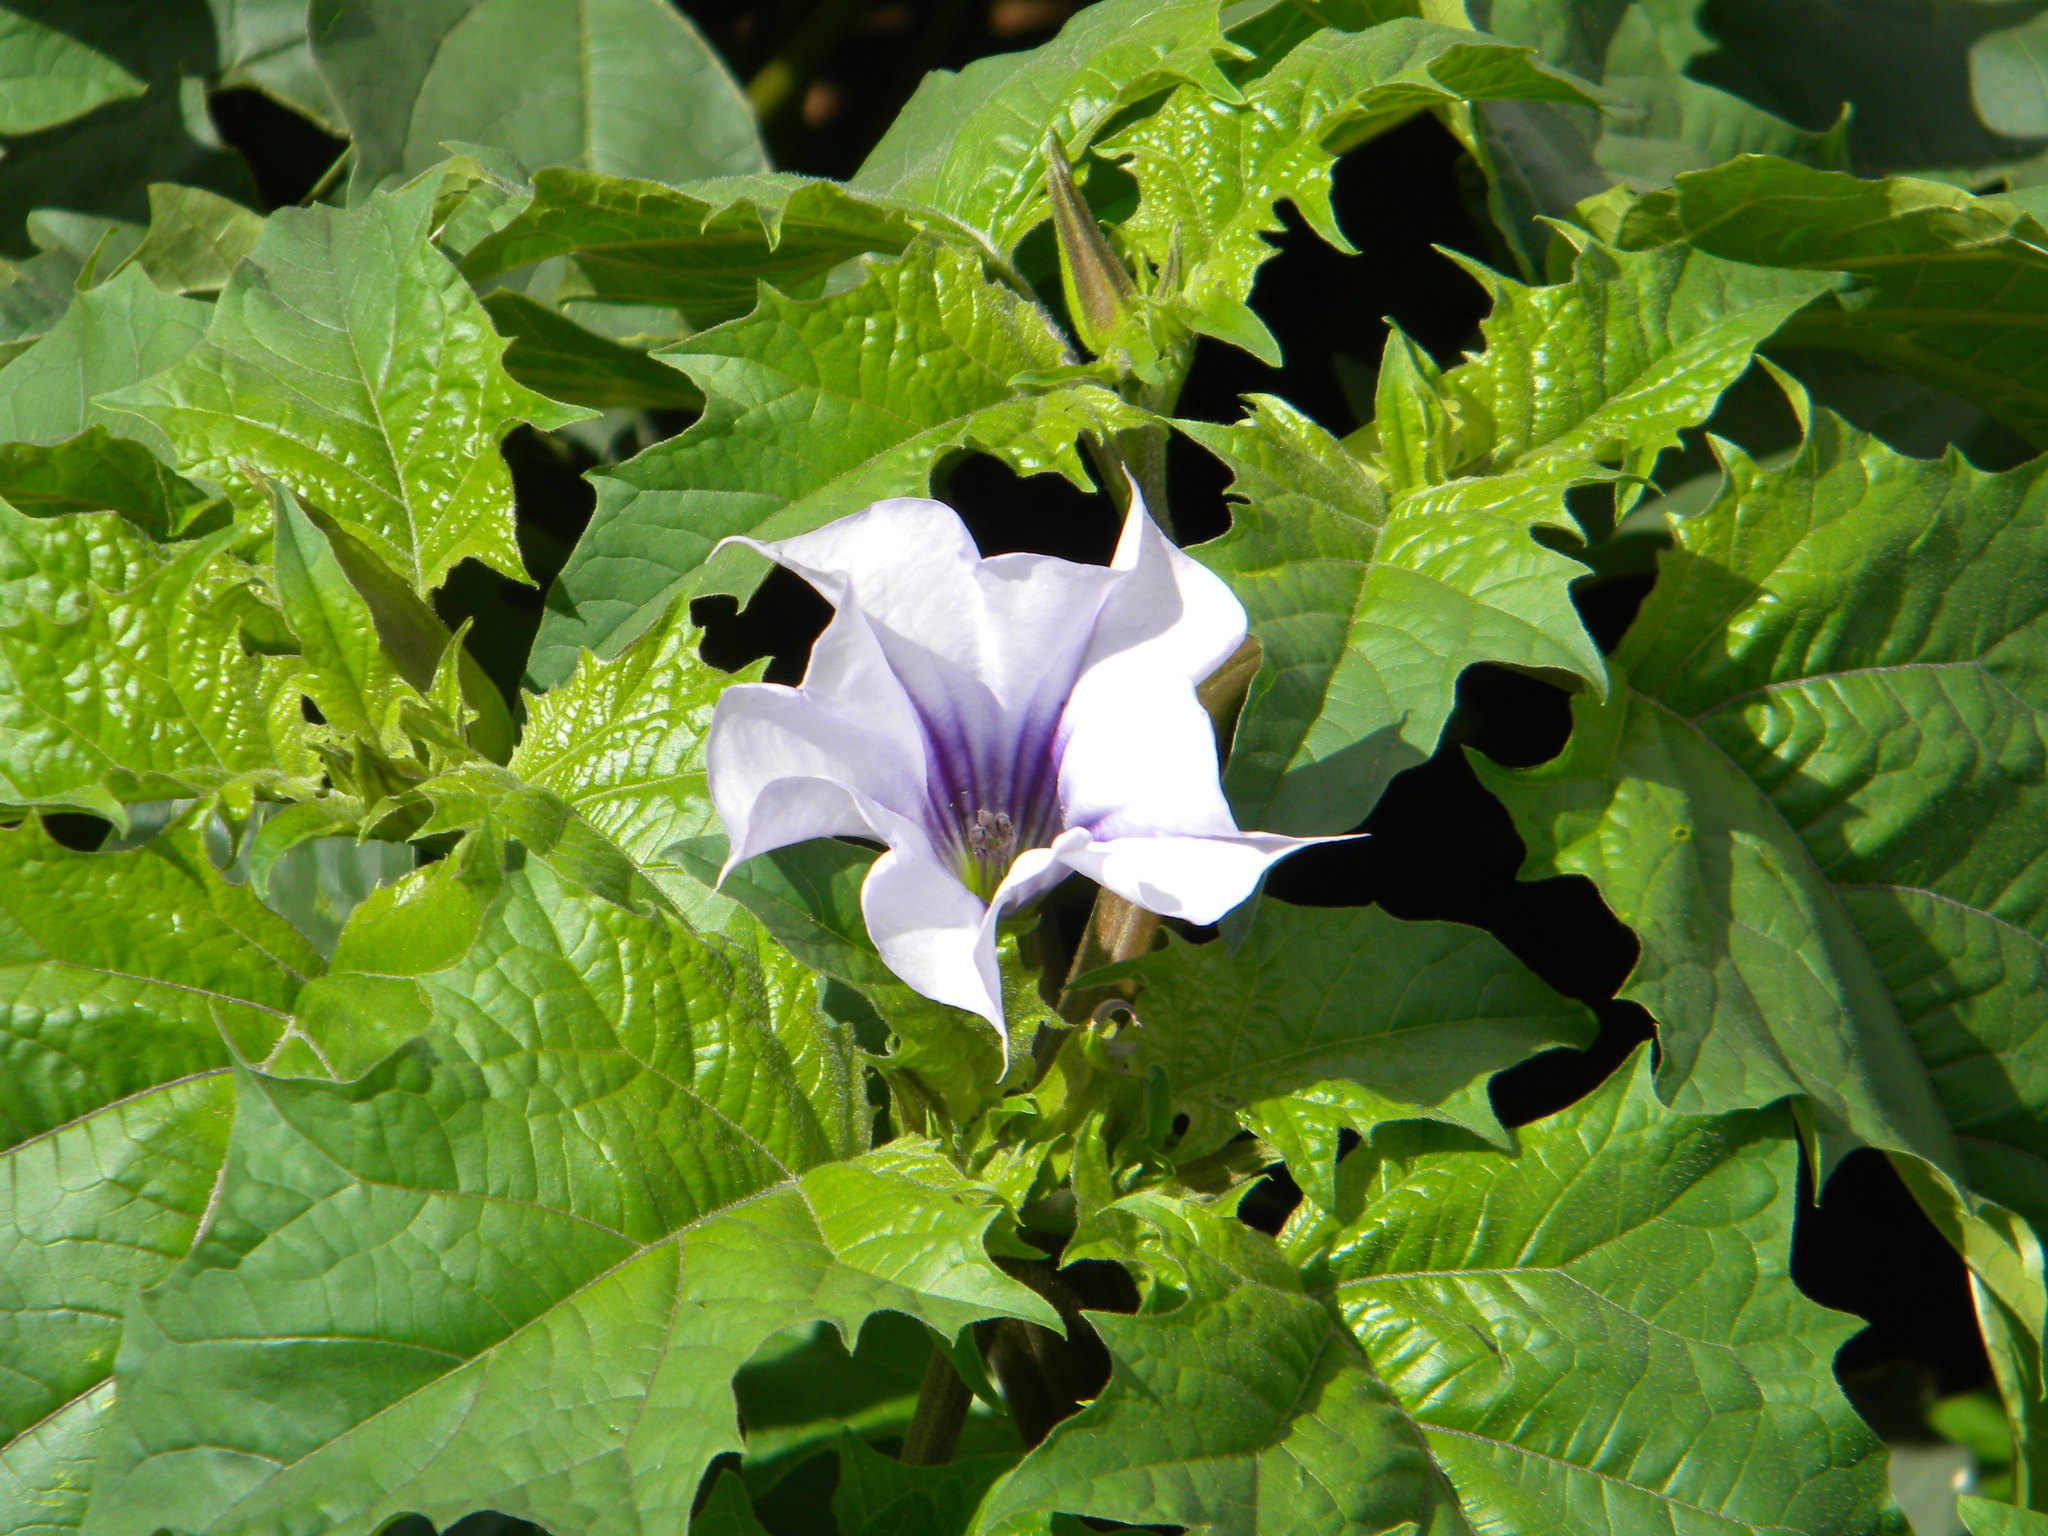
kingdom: Plantae
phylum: Tracheophyta
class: Magnoliopsida
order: Solanales
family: Solanaceae
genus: Datura
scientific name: Datura stramonium
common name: Thorn-apple
